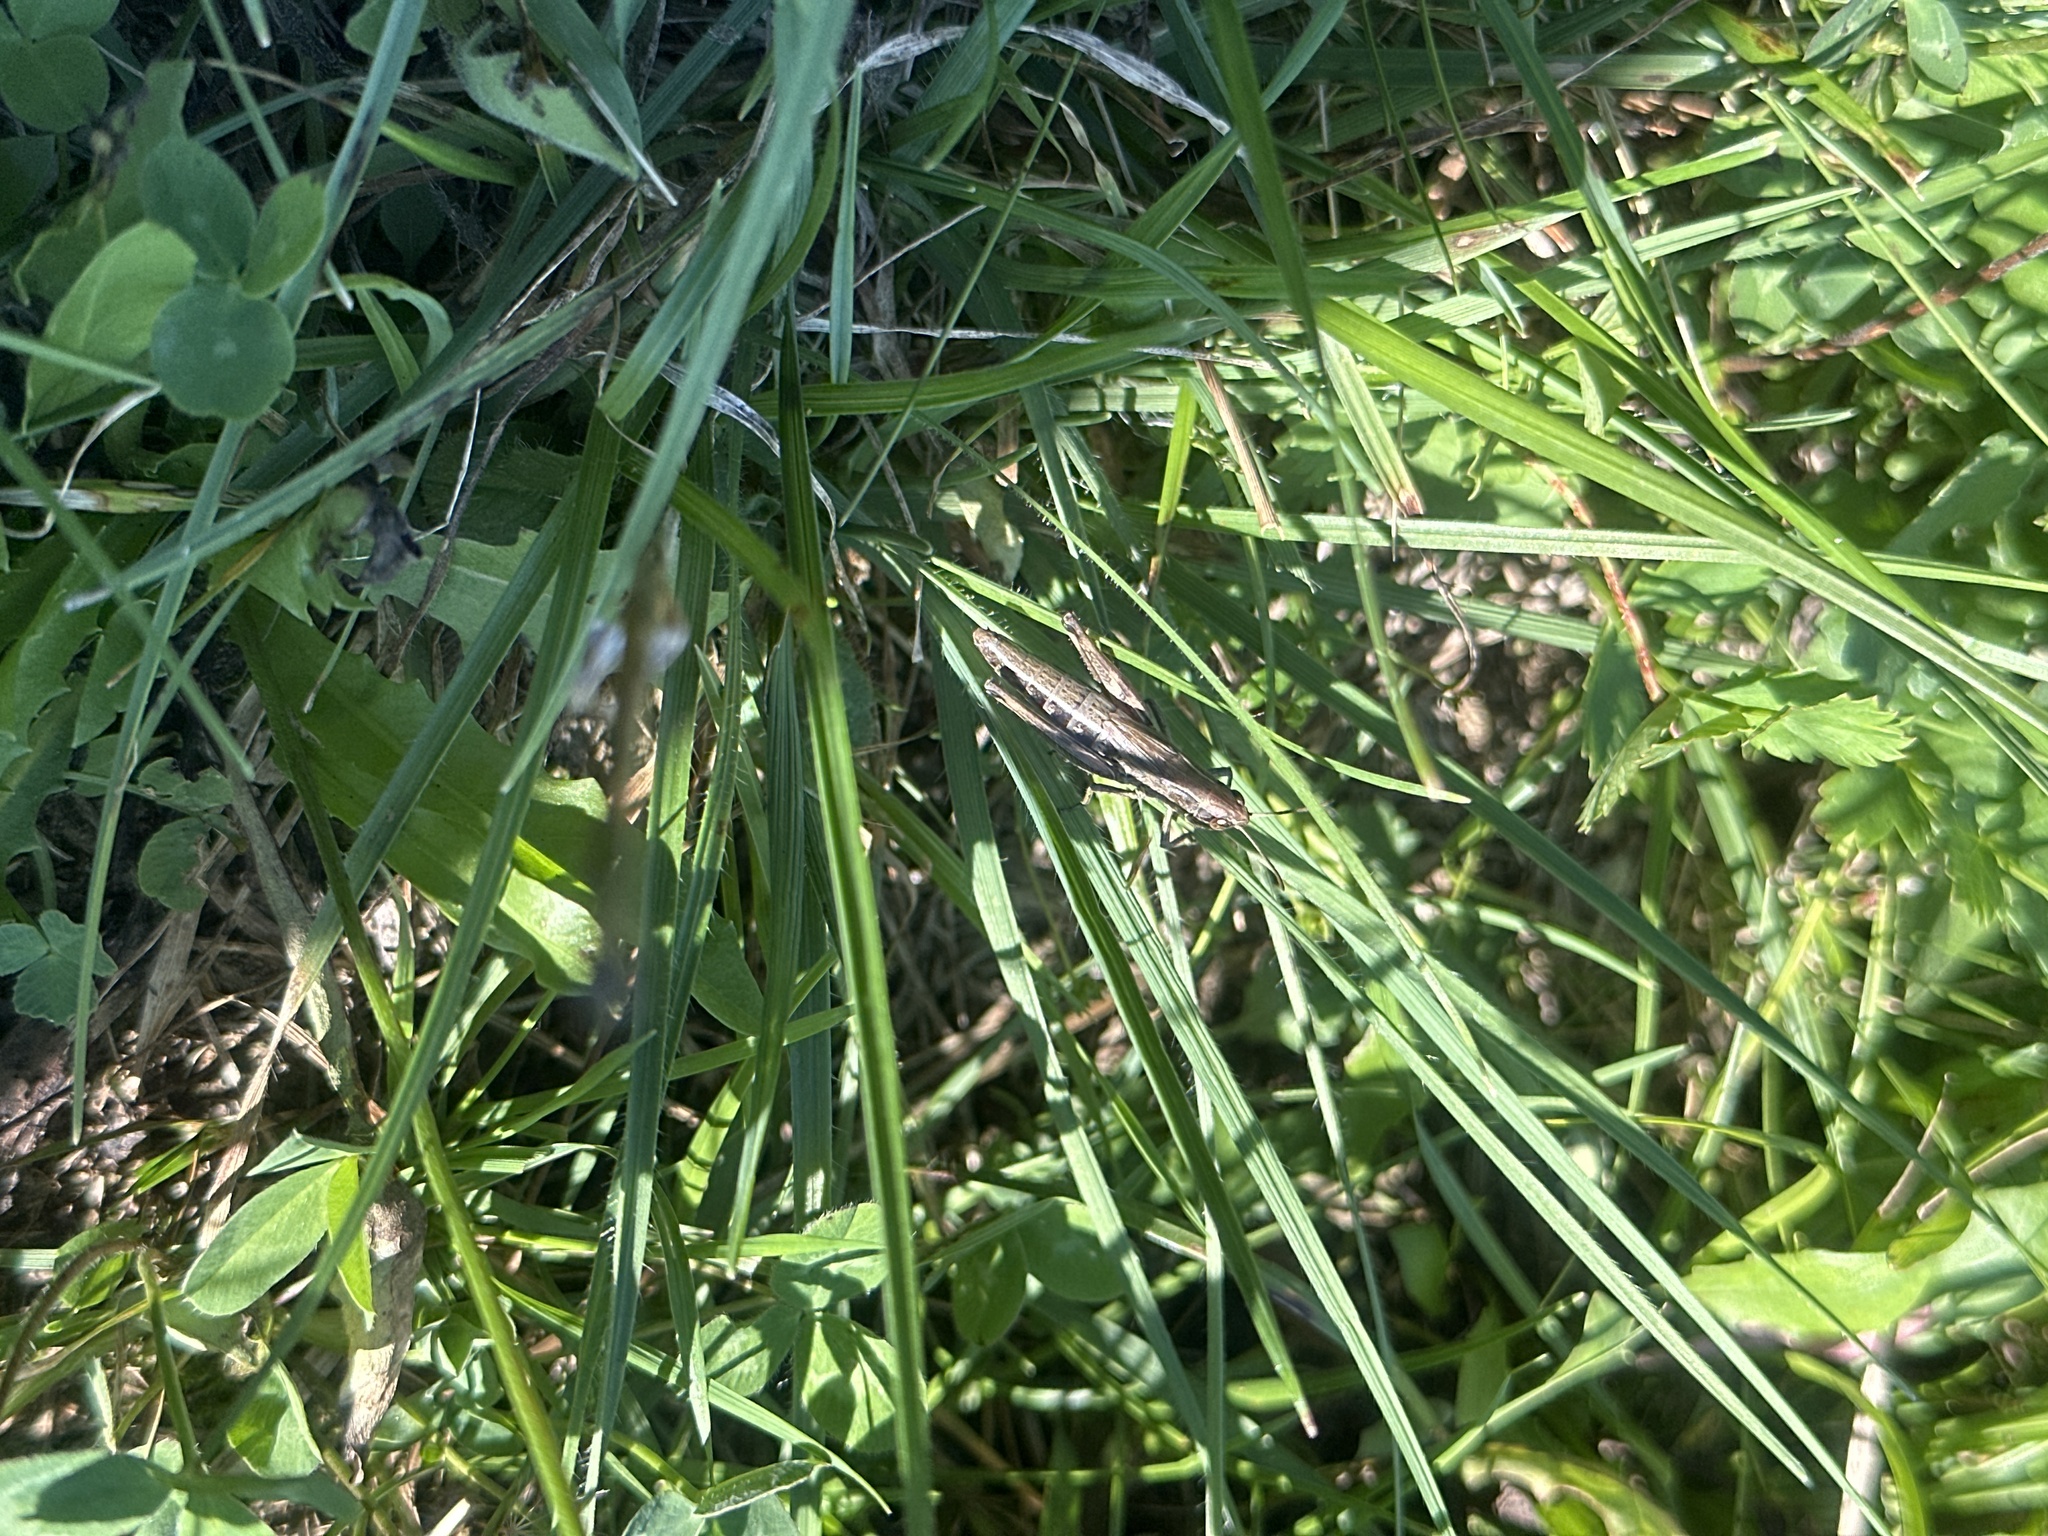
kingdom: Animalia
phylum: Arthropoda
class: Insecta
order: Orthoptera
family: Acrididae
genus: Pseudochorthippus
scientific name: Pseudochorthippus parallelus
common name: Meadow grasshopper
